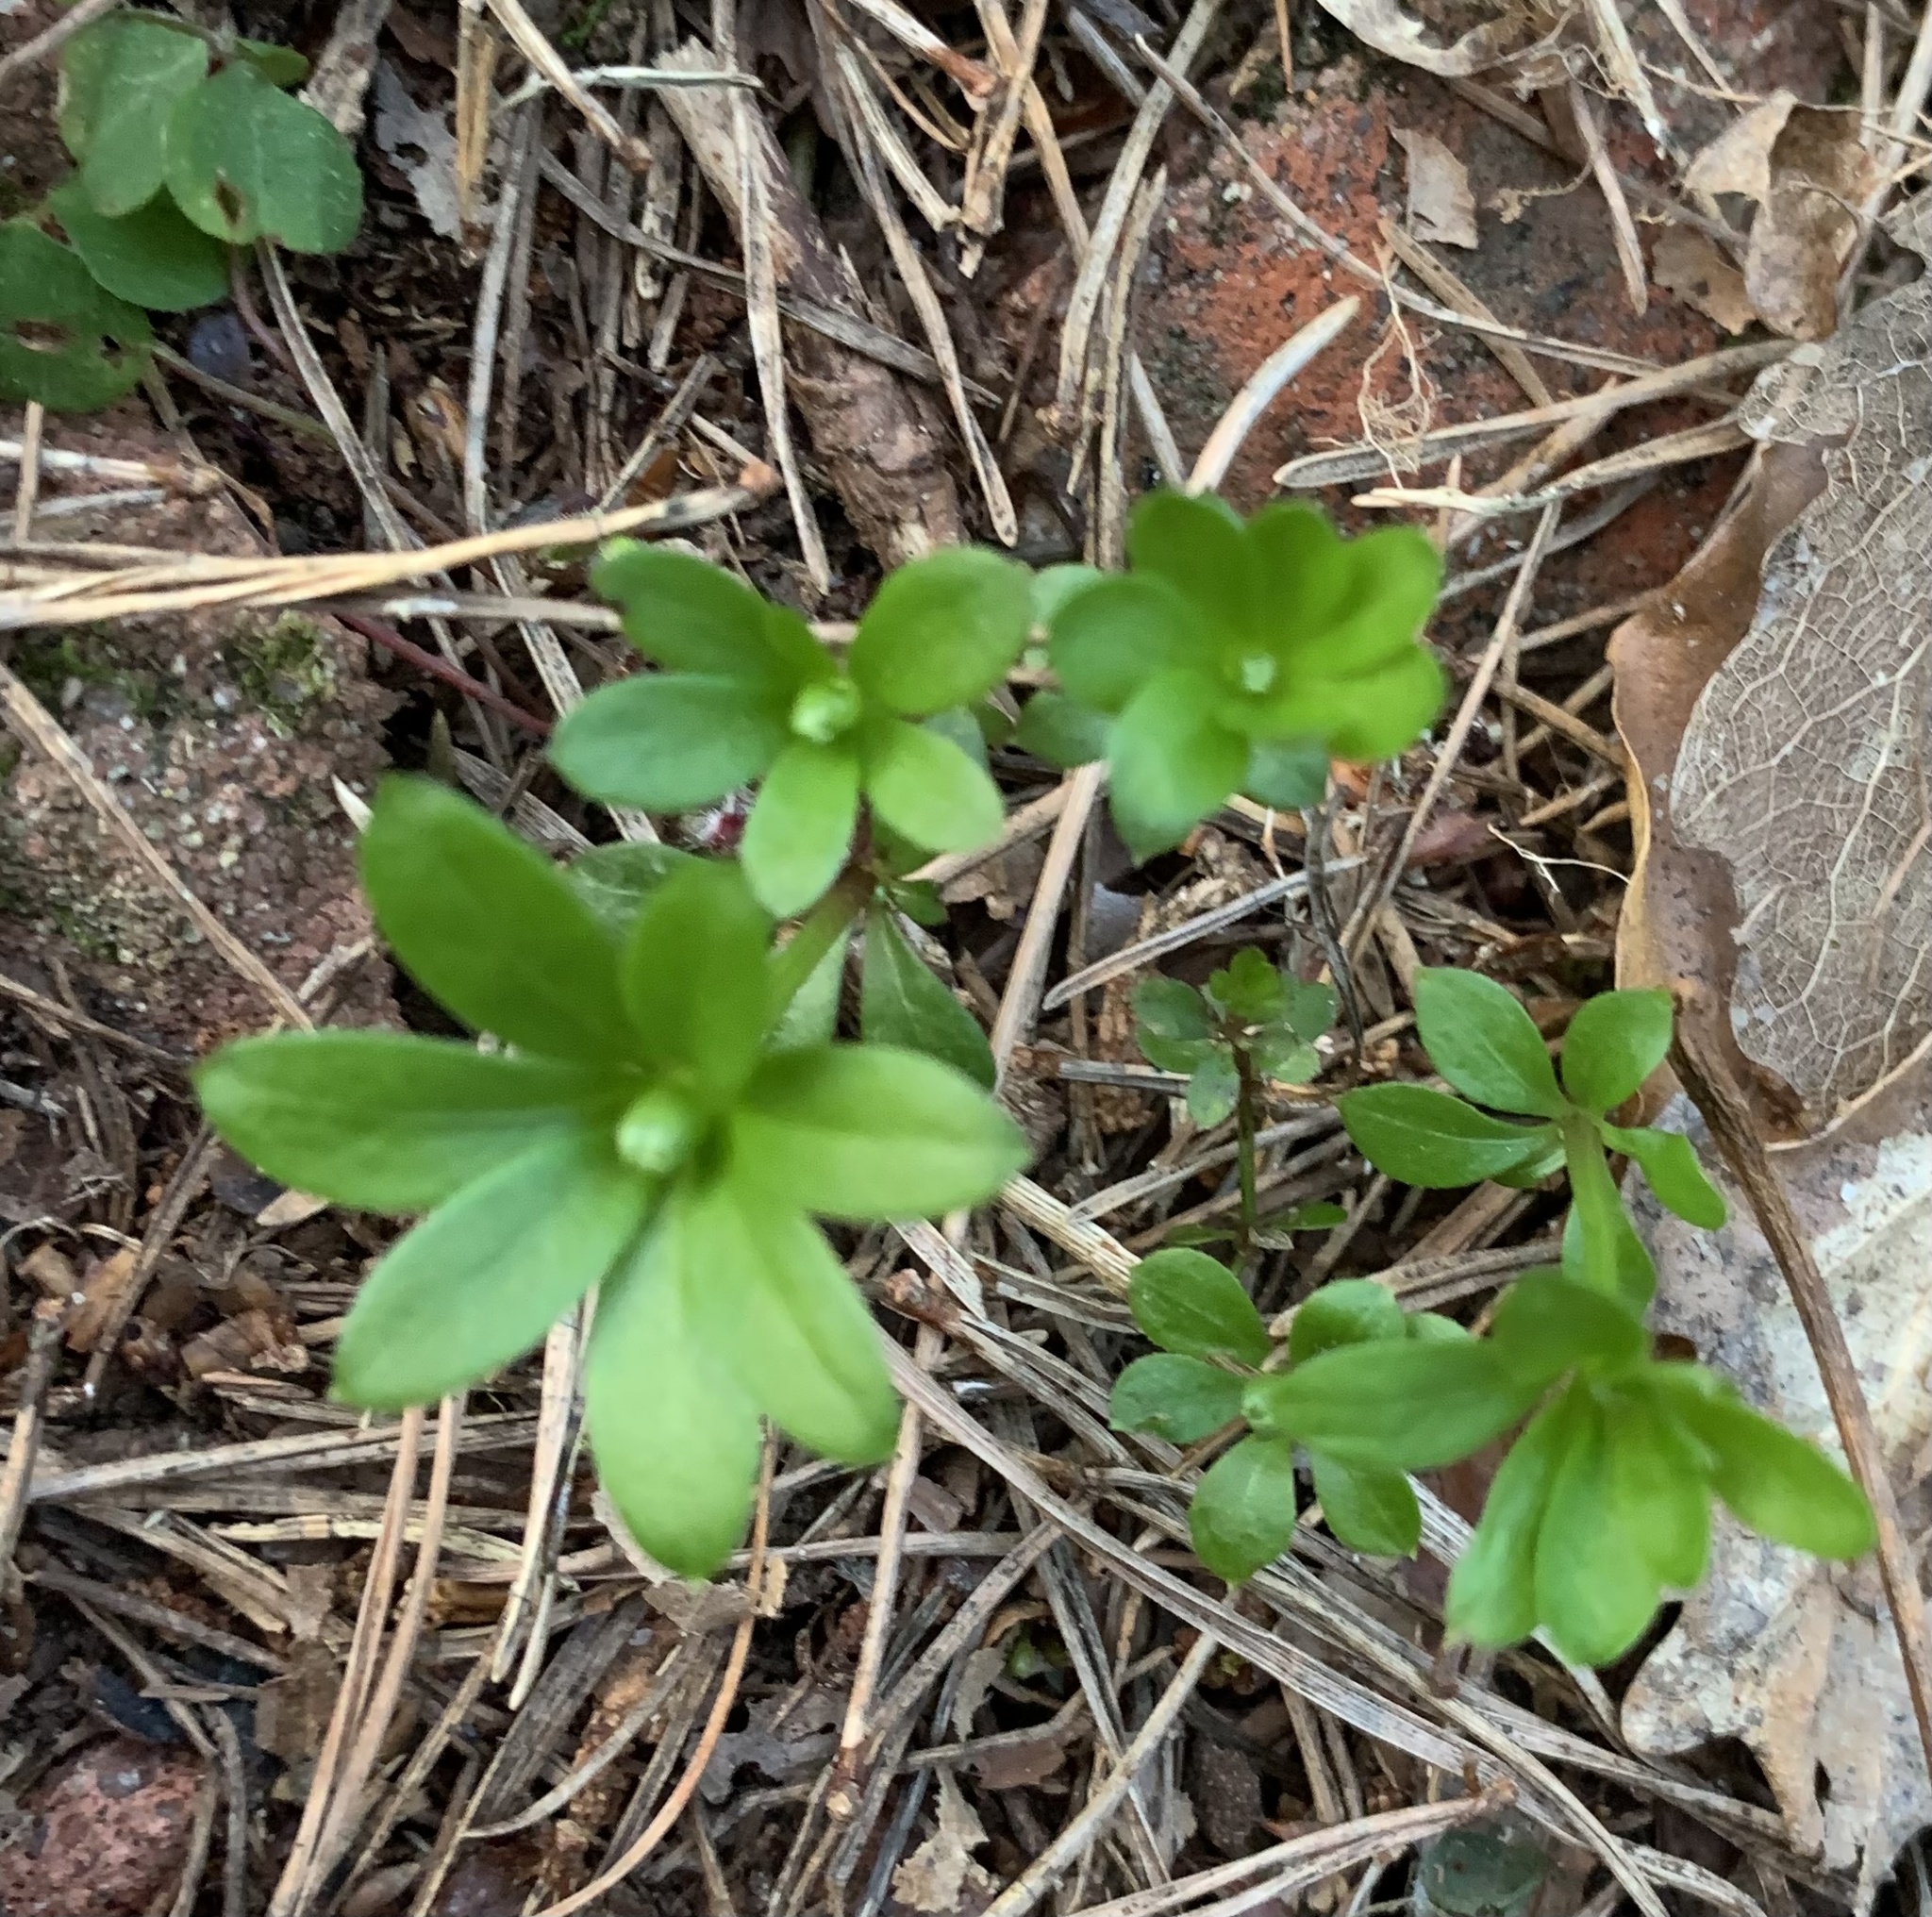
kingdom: Plantae
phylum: Tracheophyta
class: Magnoliopsida
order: Gentianales
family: Rubiaceae
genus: Galium
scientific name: Galium odoratum
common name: Sweet woodruff
